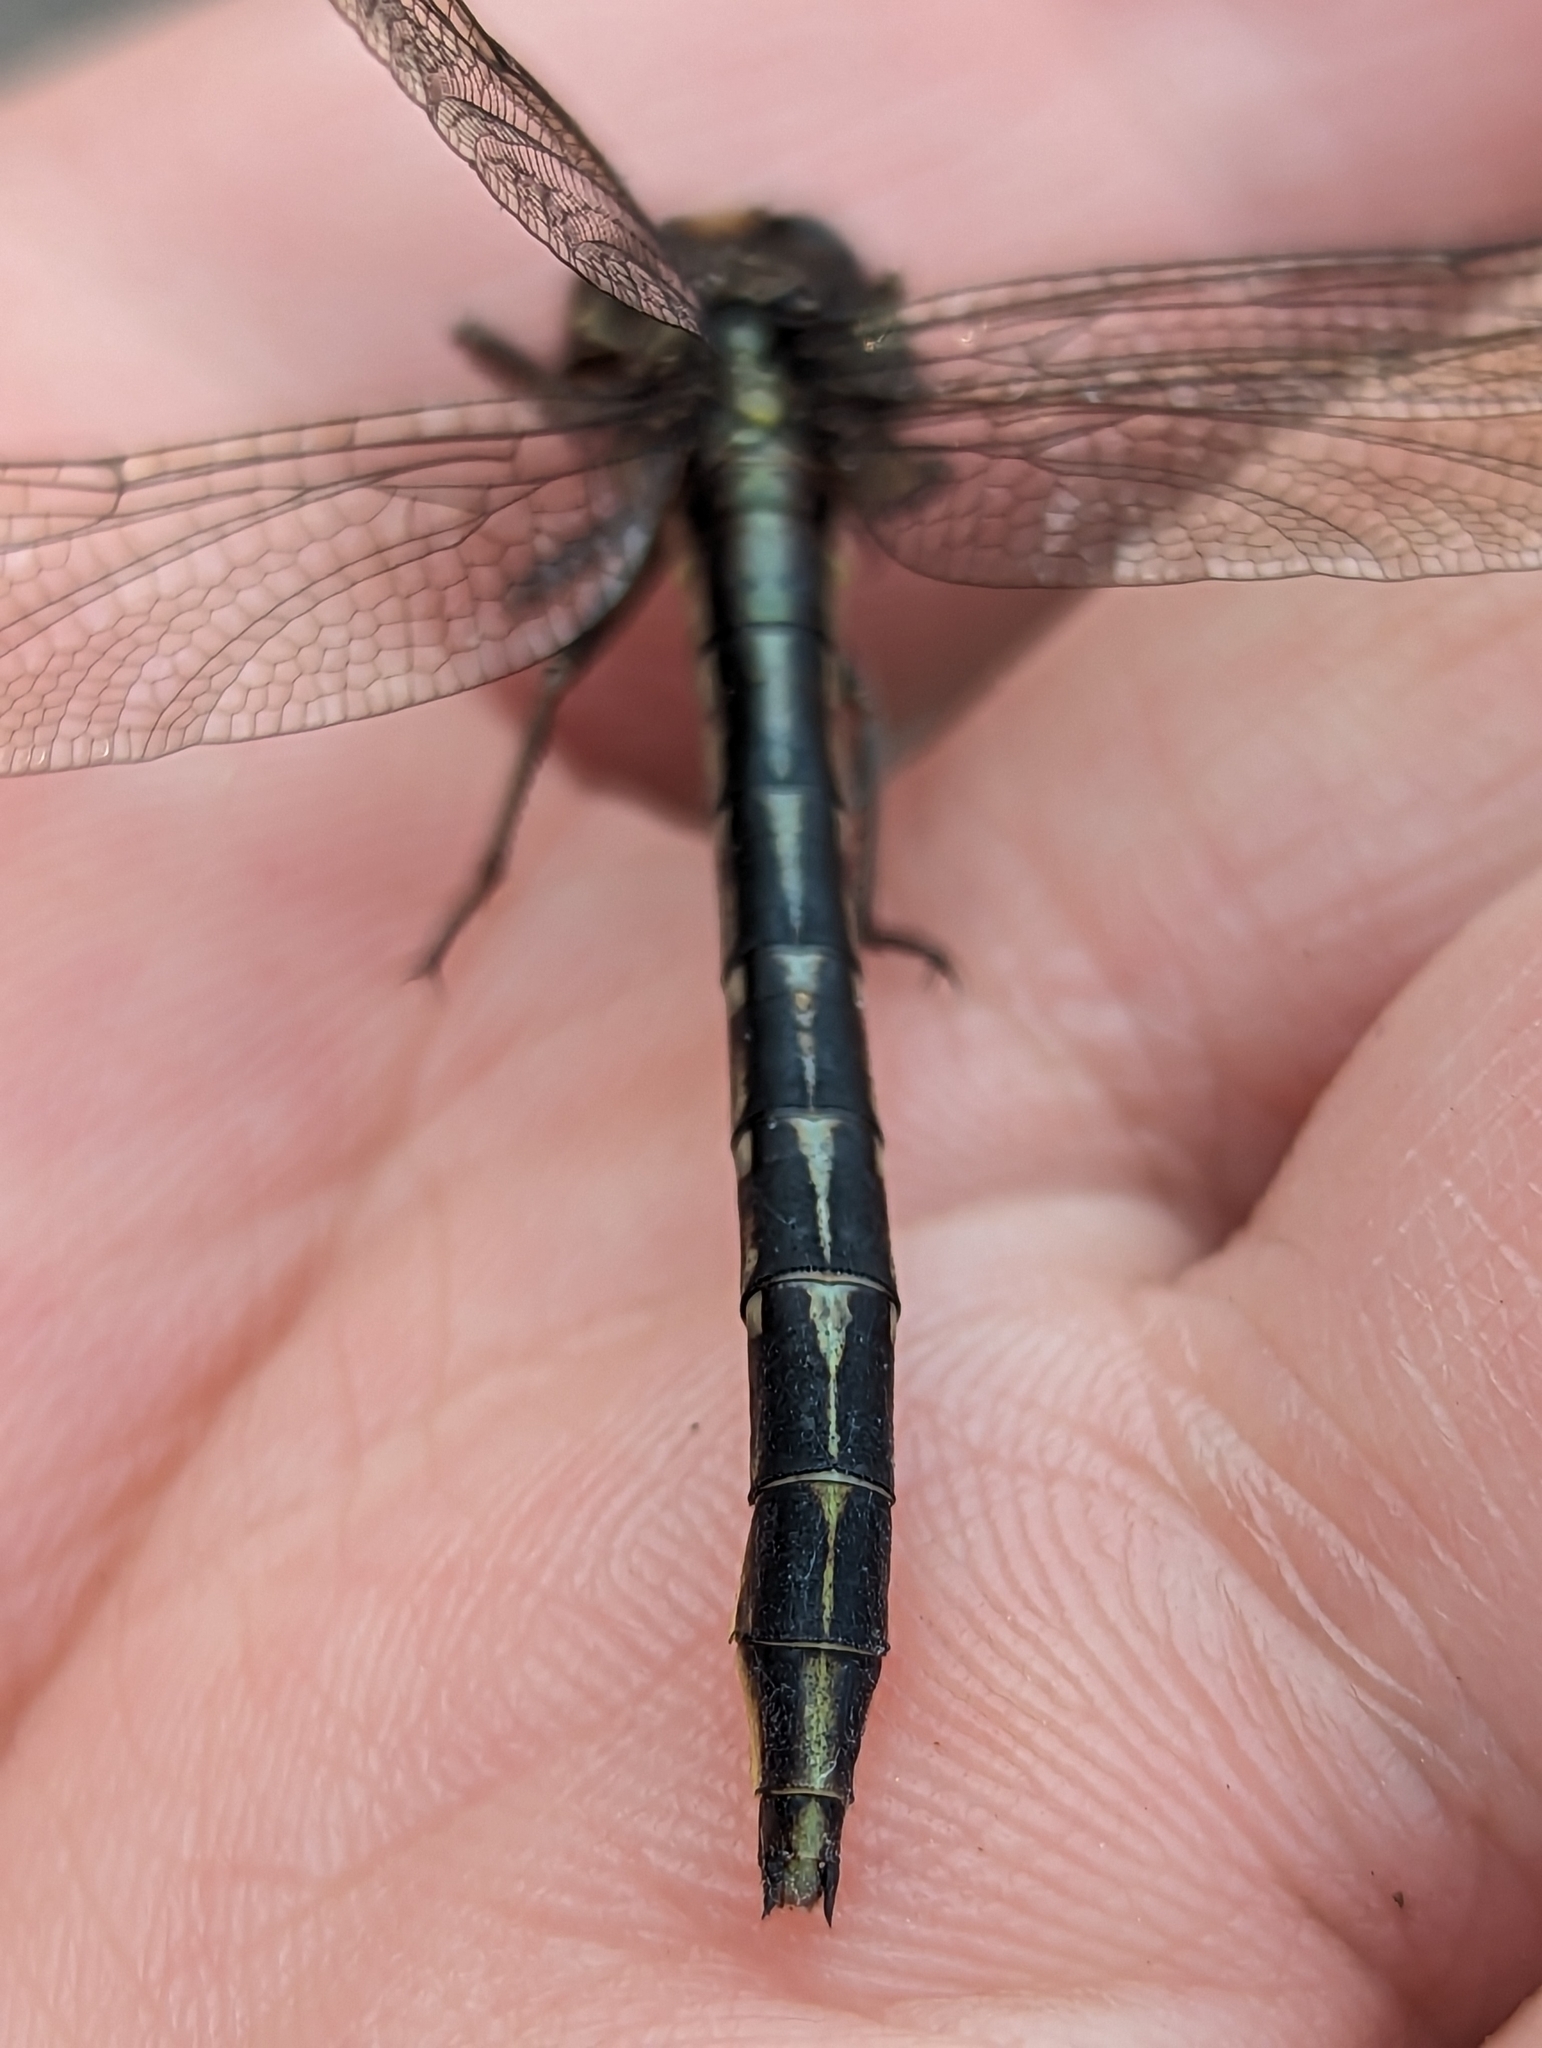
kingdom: Animalia
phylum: Arthropoda
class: Insecta
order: Odonata
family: Gomphidae
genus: Phanogomphus
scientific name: Phanogomphus exilis
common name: Lancet clubtail
